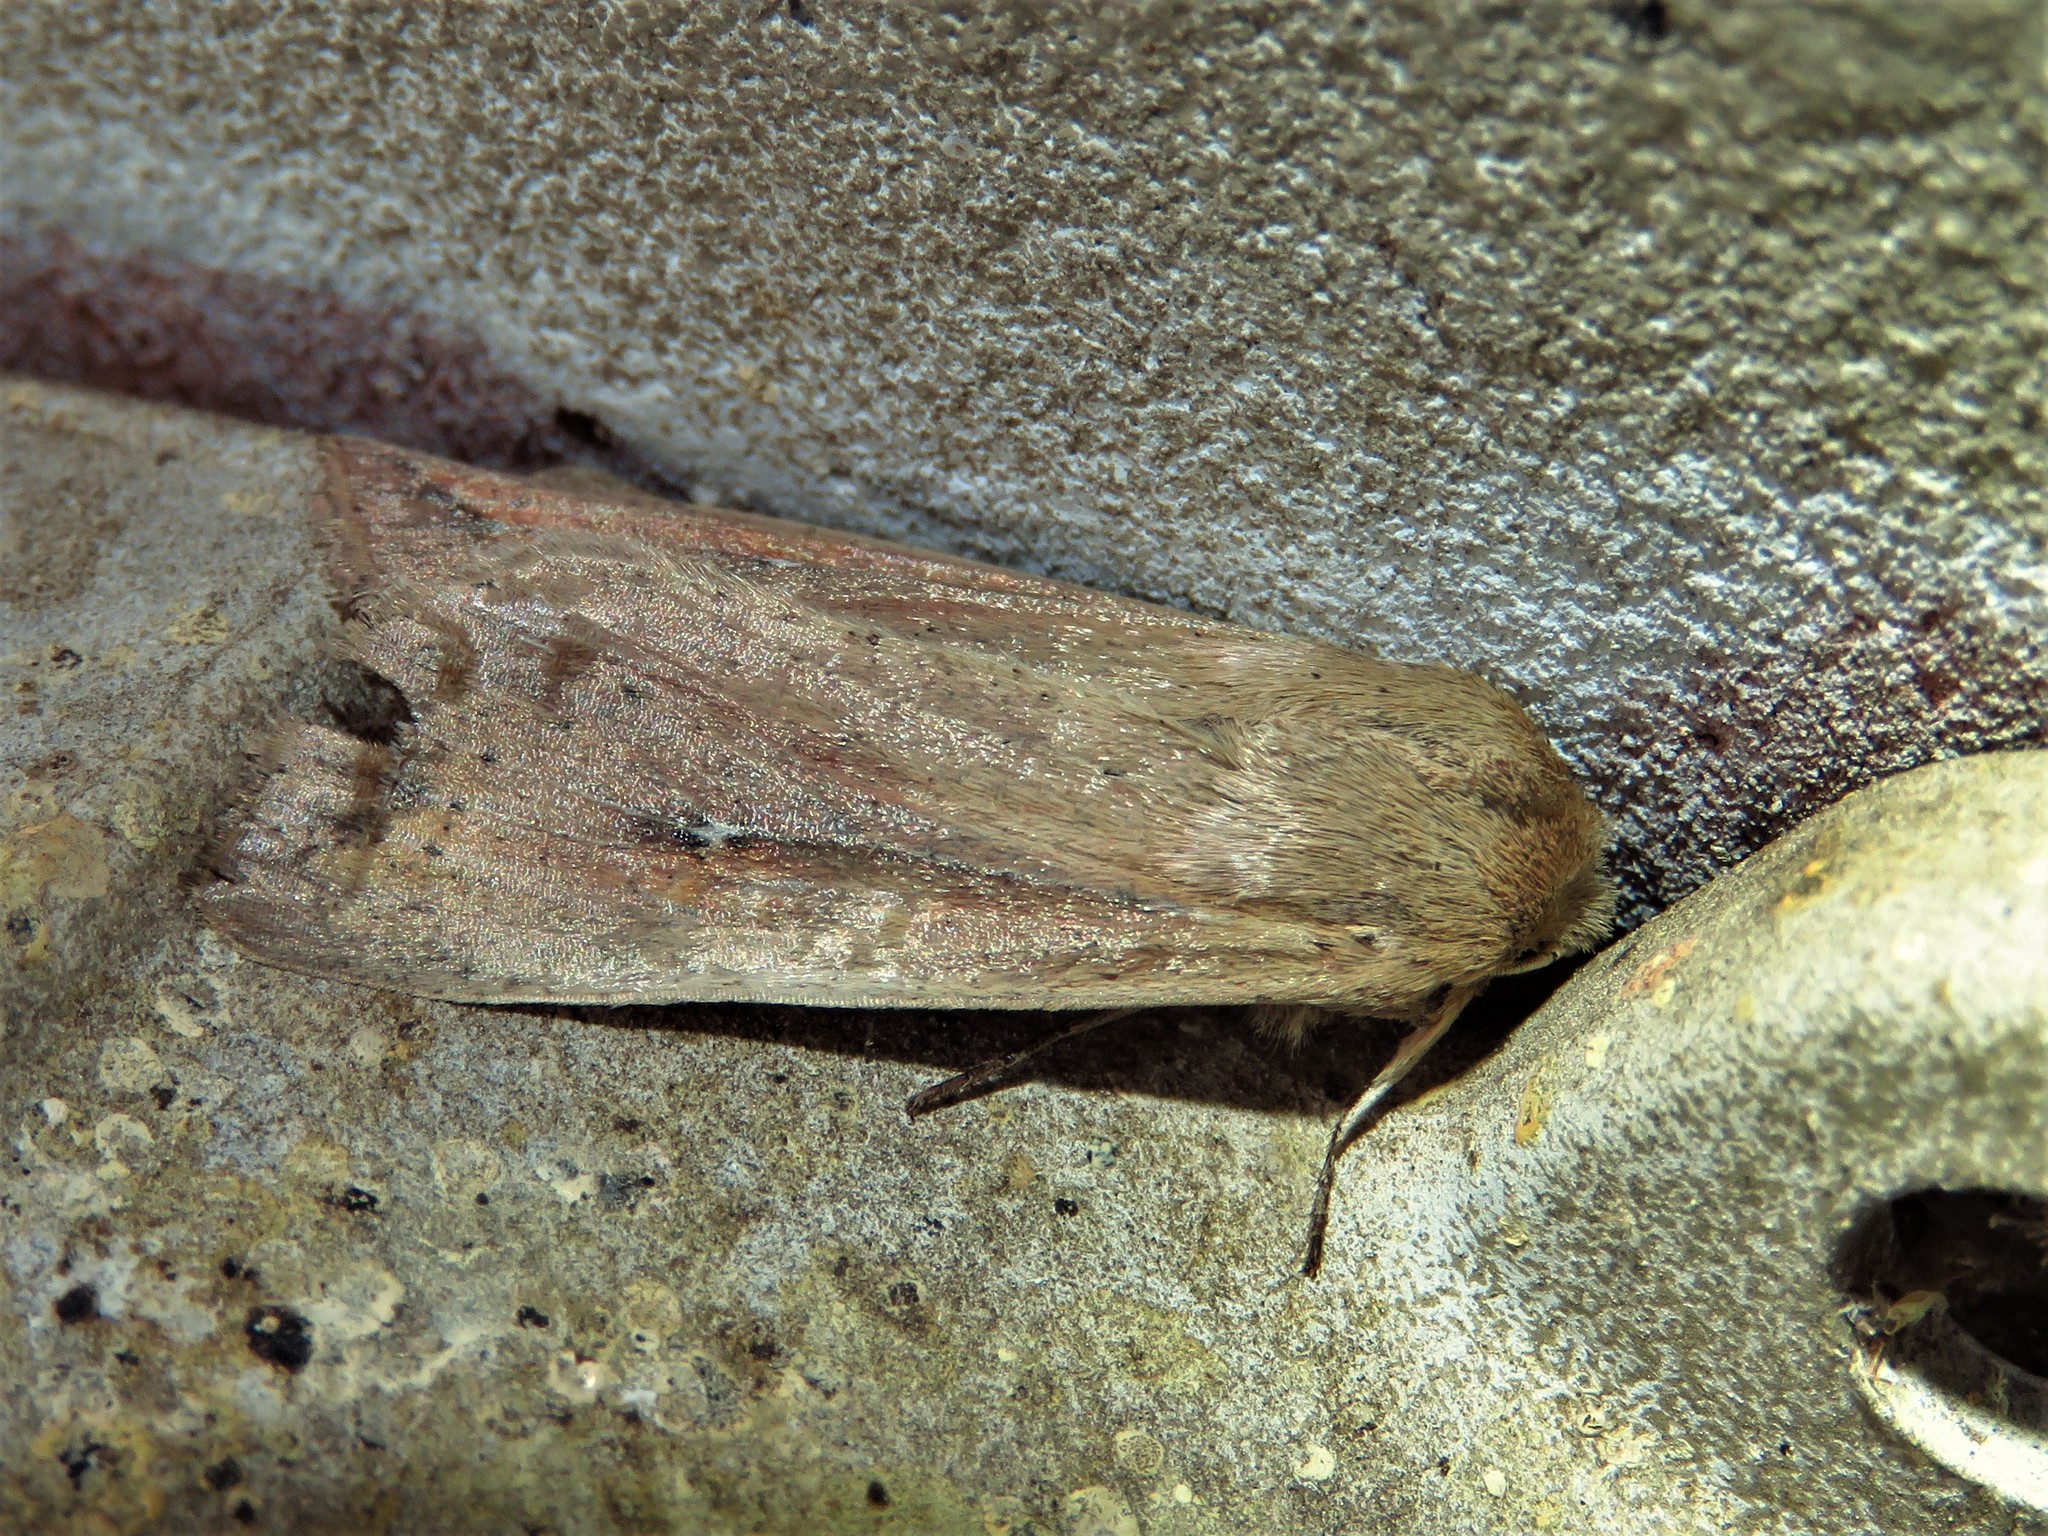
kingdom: Animalia
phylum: Arthropoda
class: Insecta
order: Lepidoptera
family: Noctuidae
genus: Mythimna
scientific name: Mythimna unipuncta
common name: White-speck
